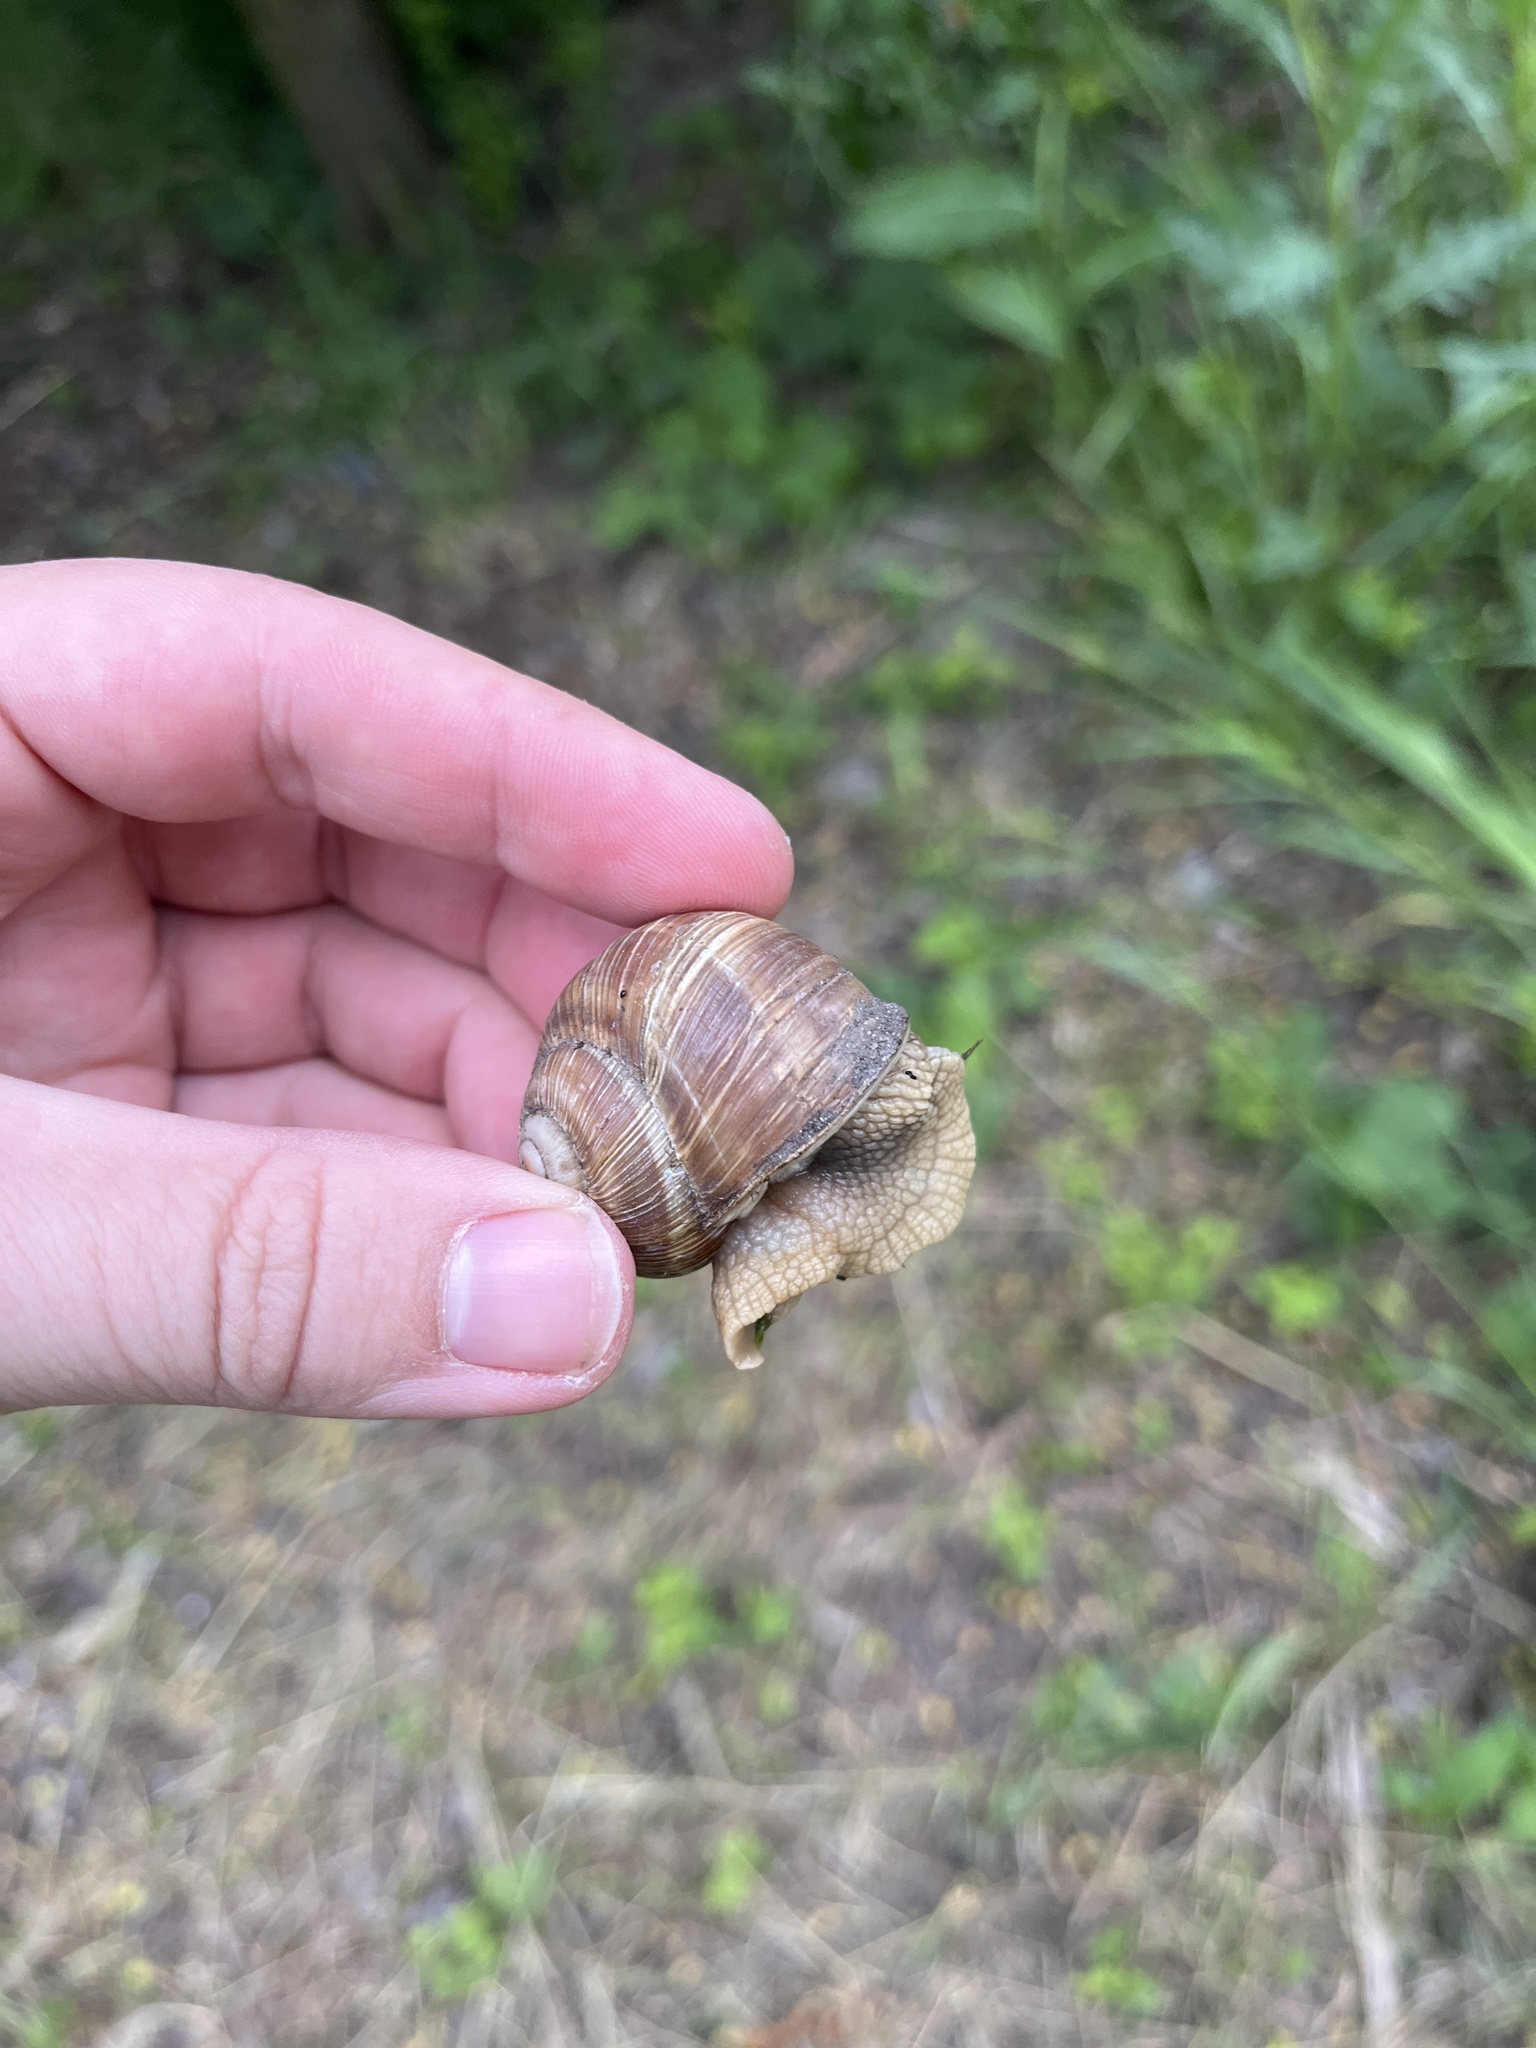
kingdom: Animalia
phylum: Mollusca
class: Gastropoda
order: Stylommatophora
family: Helicidae
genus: Helix
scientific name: Helix pomatia
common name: Roman snail
